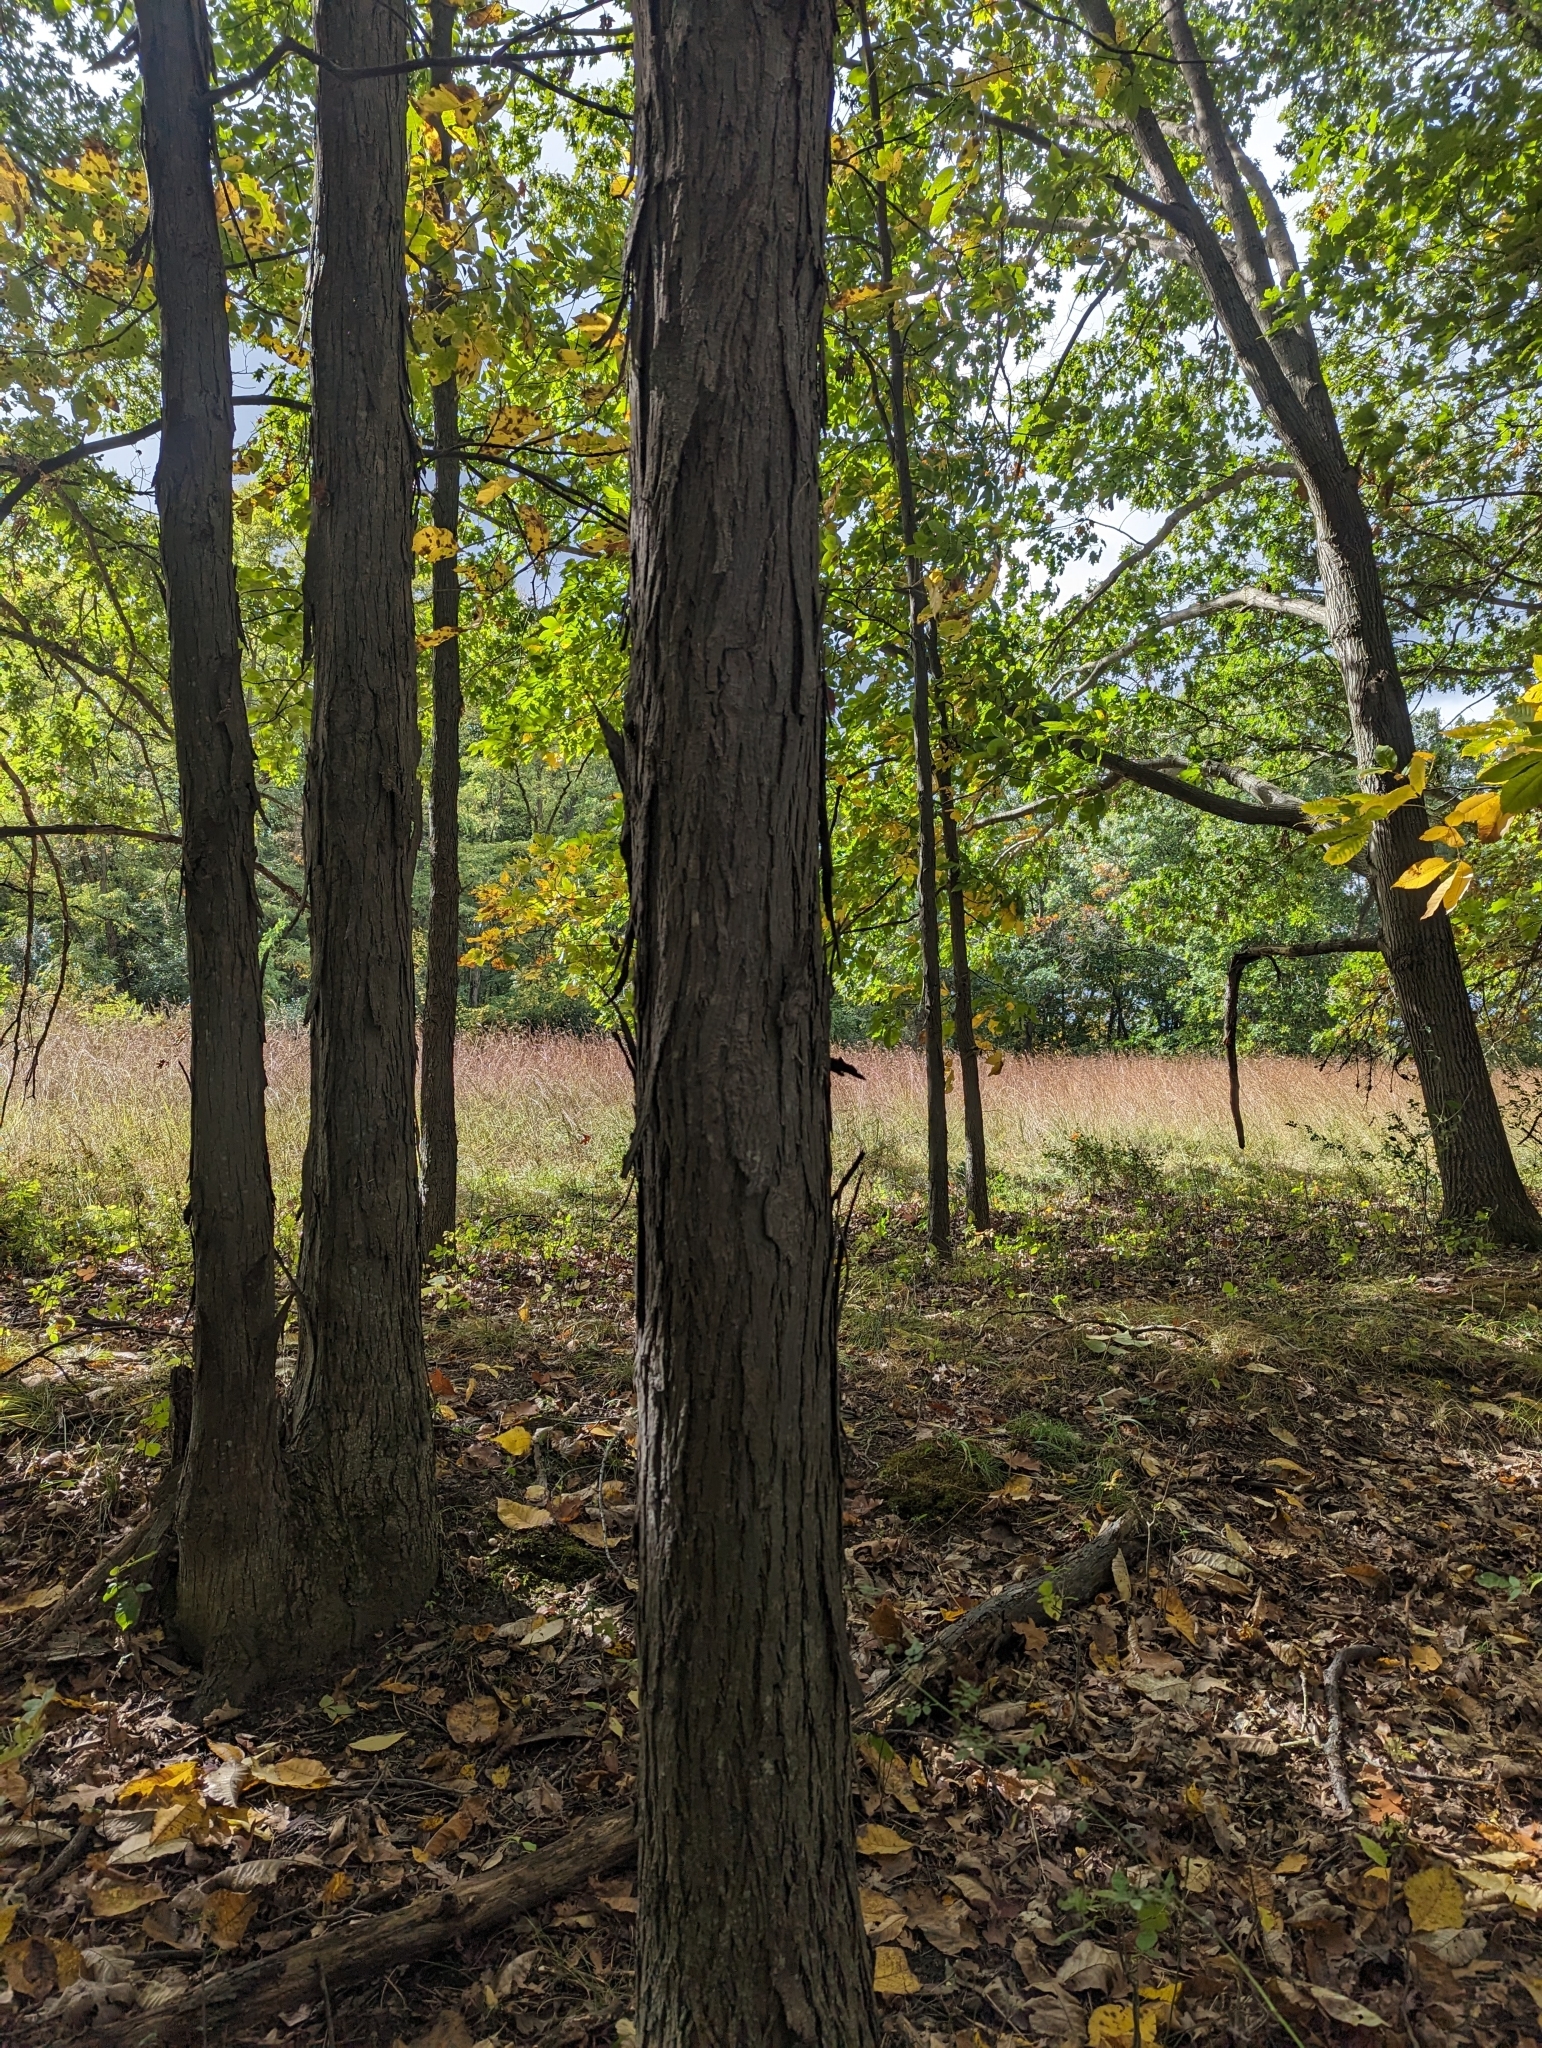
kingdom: Plantae
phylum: Tracheophyta
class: Magnoliopsida
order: Fagales
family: Juglandaceae
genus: Carya
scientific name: Carya ovata
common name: Shagbark hickory
